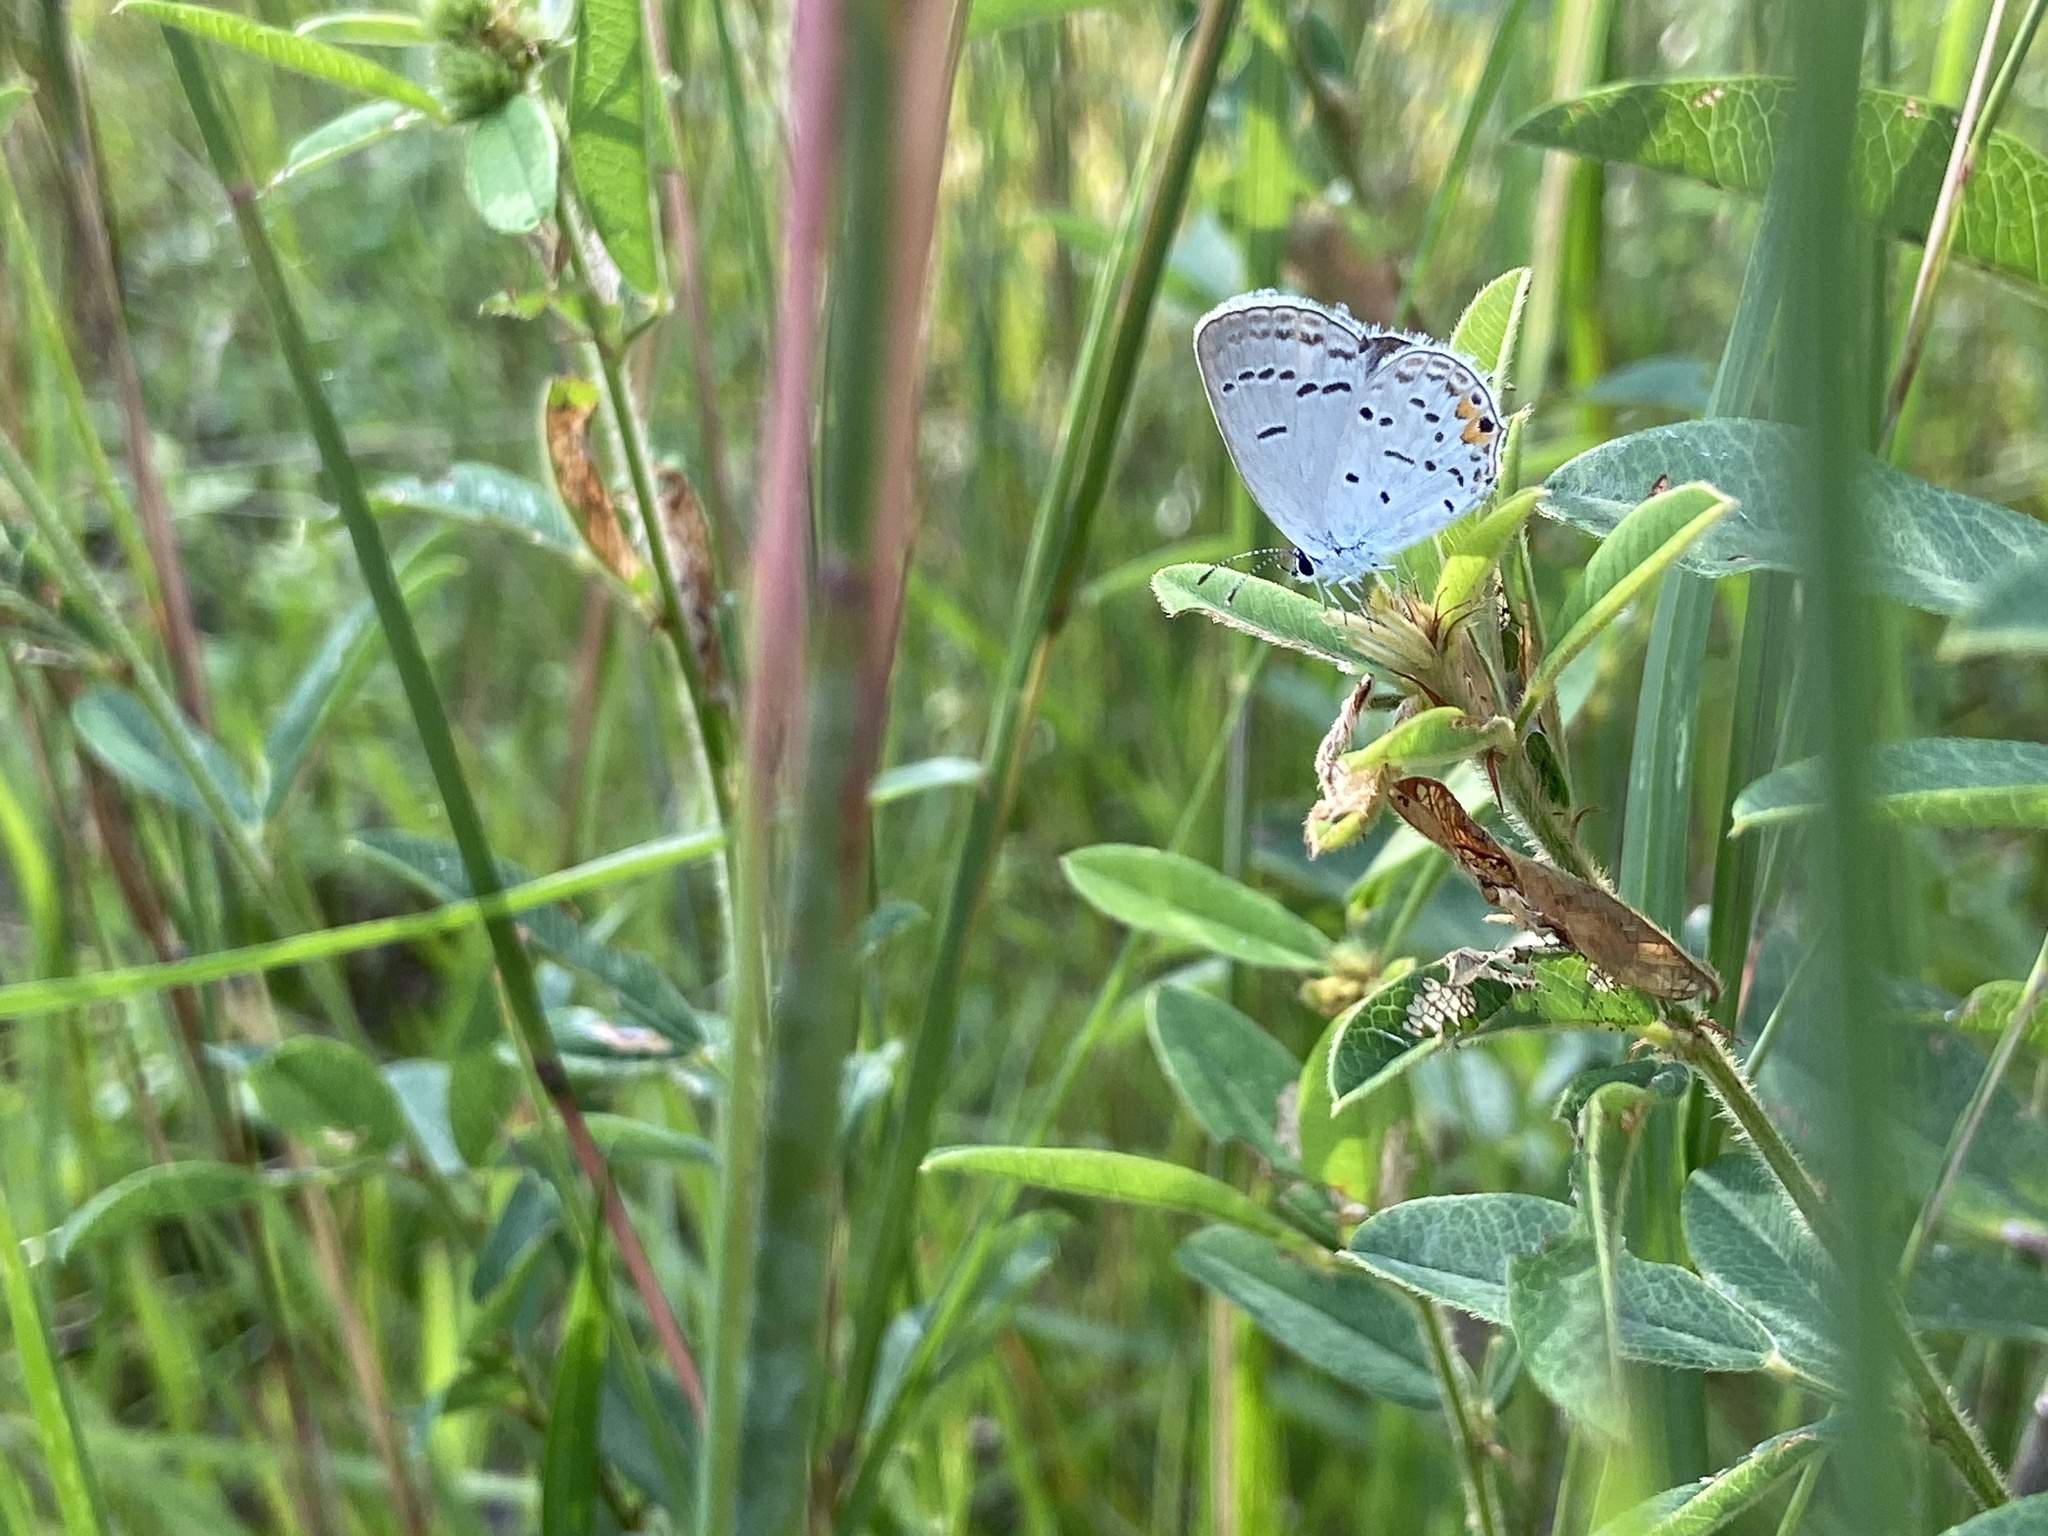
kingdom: Animalia
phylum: Arthropoda
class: Insecta
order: Lepidoptera
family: Lycaenidae
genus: Elkalyce
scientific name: Elkalyce comyntas
